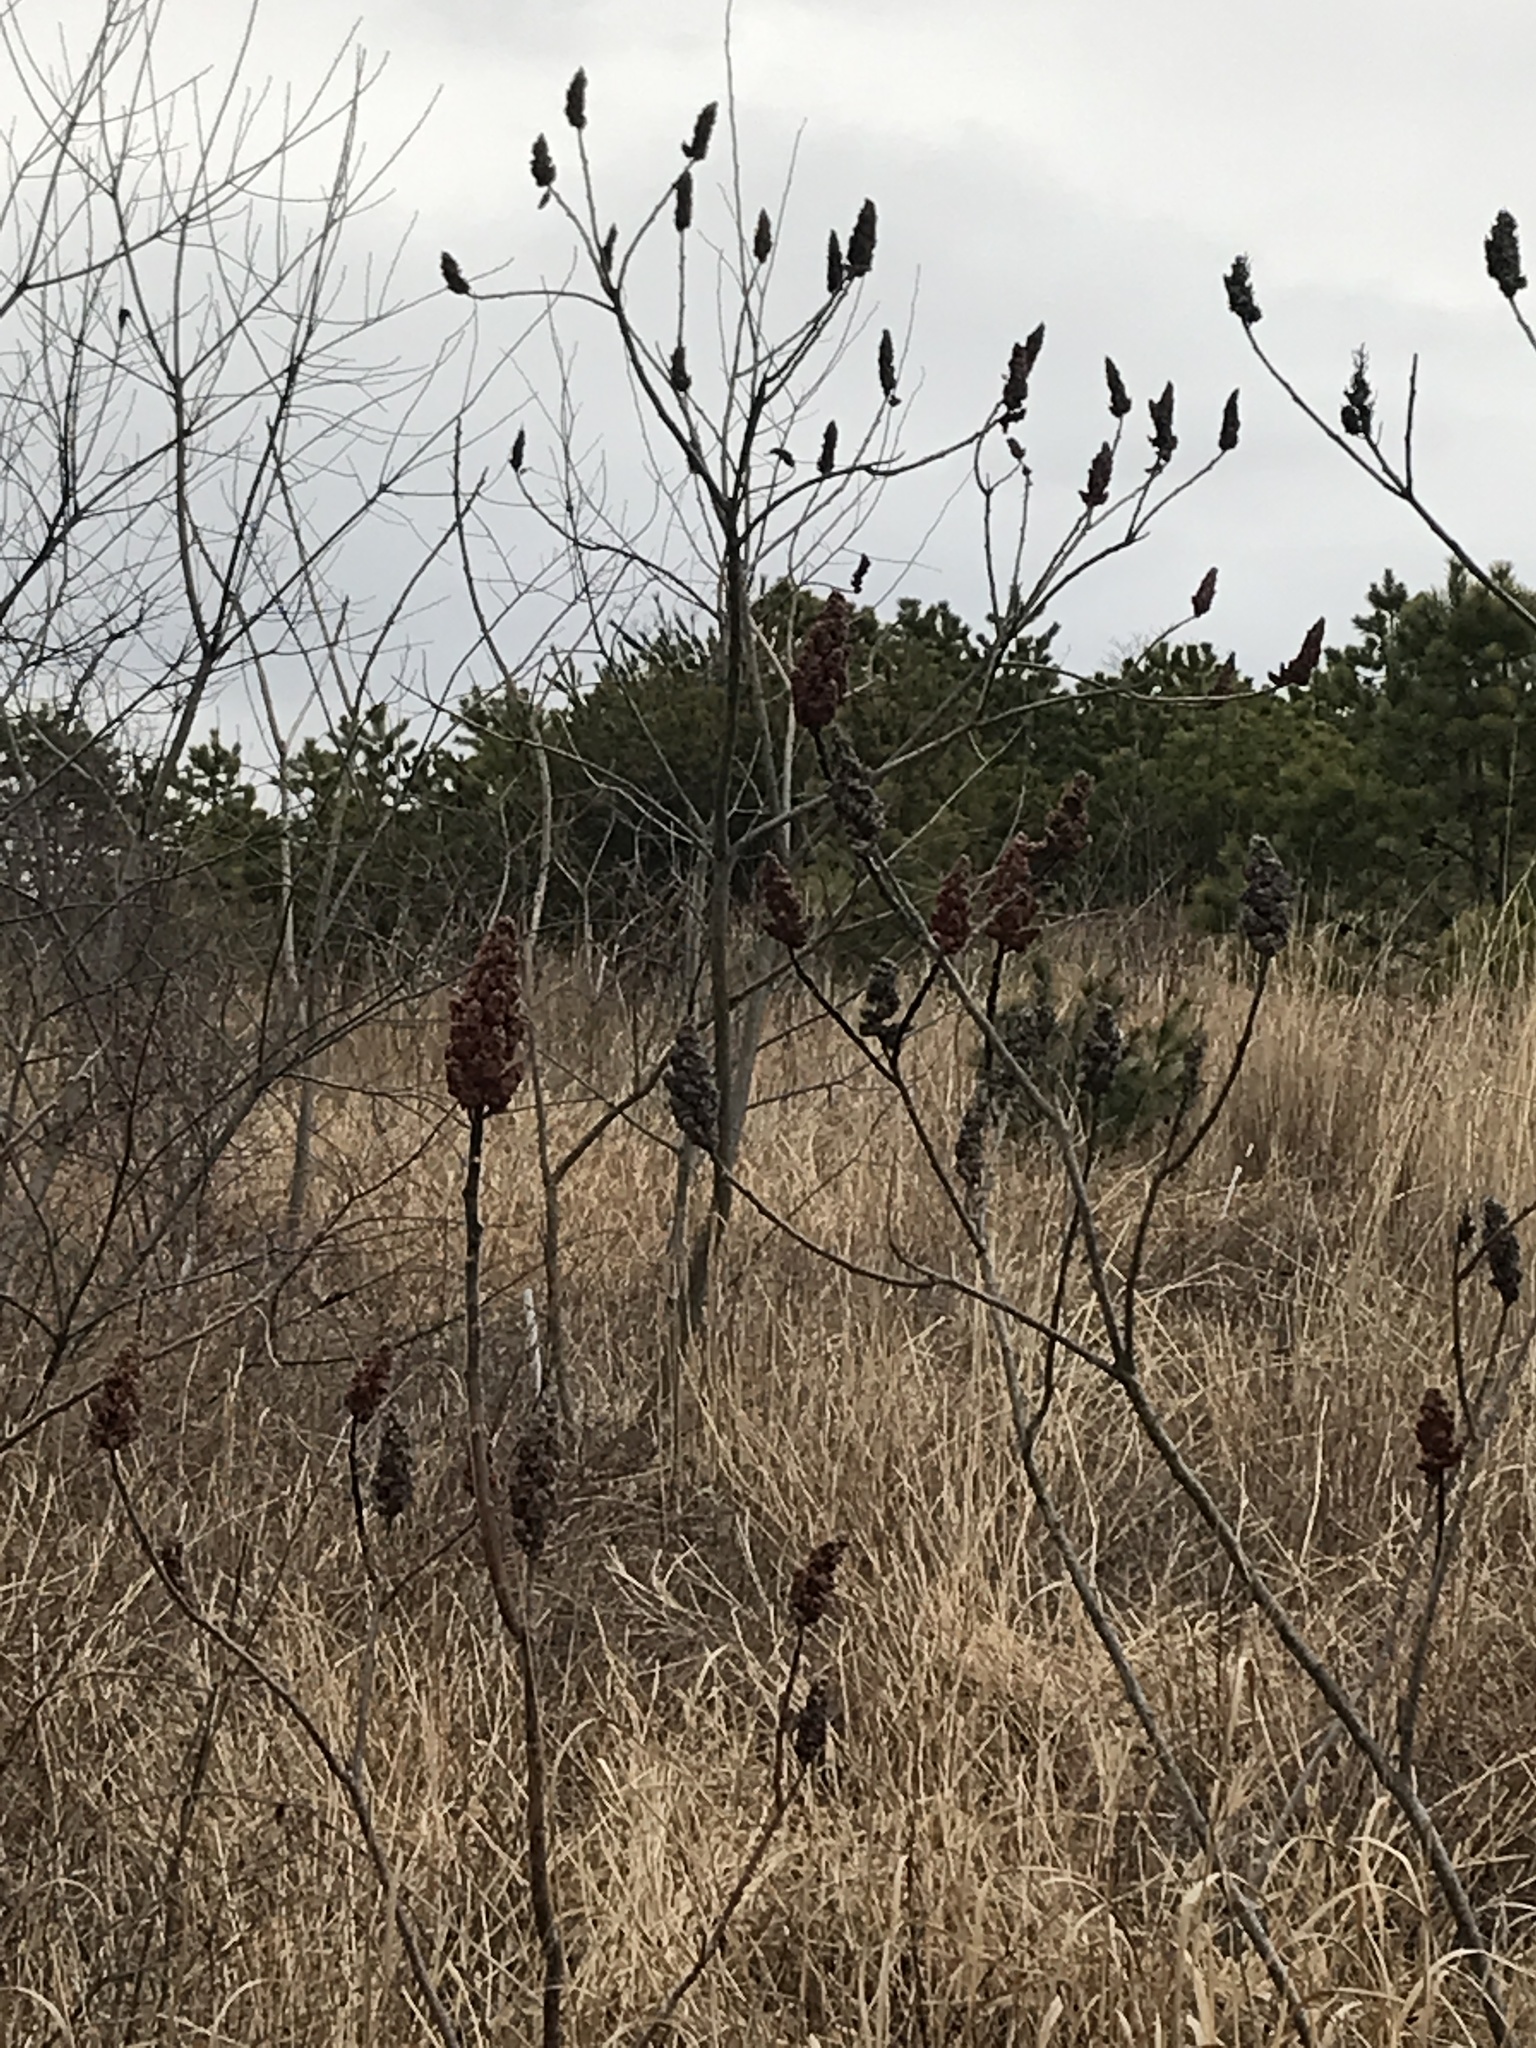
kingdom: Plantae
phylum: Tracheophyta
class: Magnoliopsida
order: Sapindales
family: Anacardiaceae
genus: Rhus
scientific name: Rhus typhina
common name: Staghorn sumac
